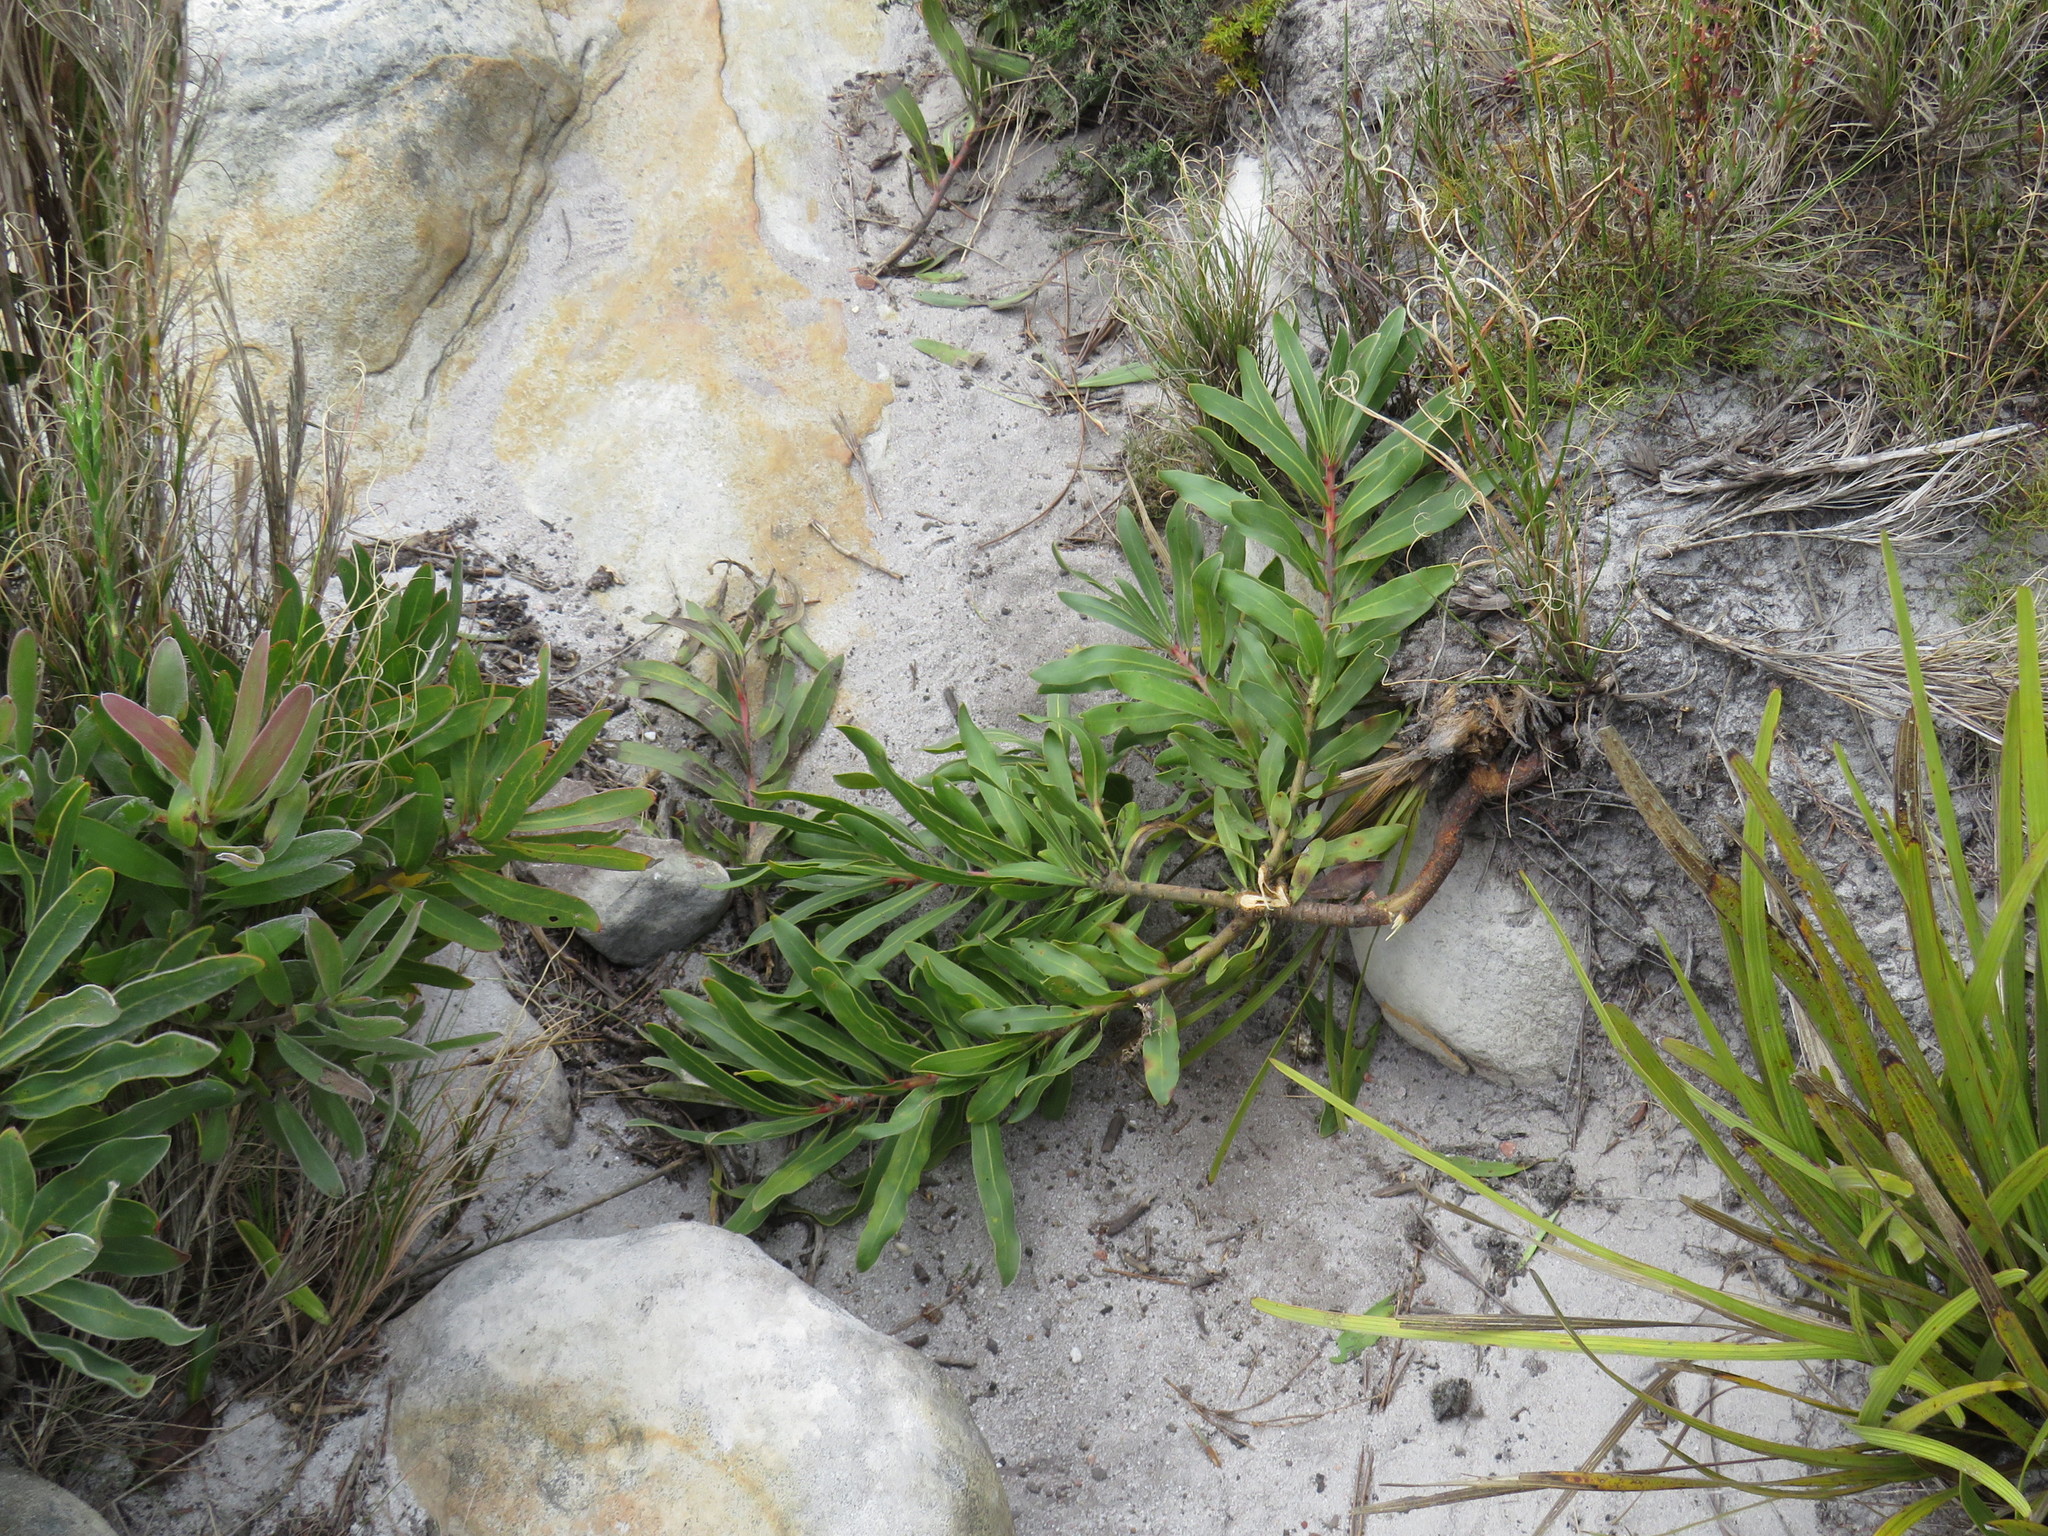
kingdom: Plantae
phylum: Tracheophyta
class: Magnoliopsida
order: Proteales
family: Proteaceae
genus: Protea
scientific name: Protea lepidocarpodendron
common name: Black-bearded protea
